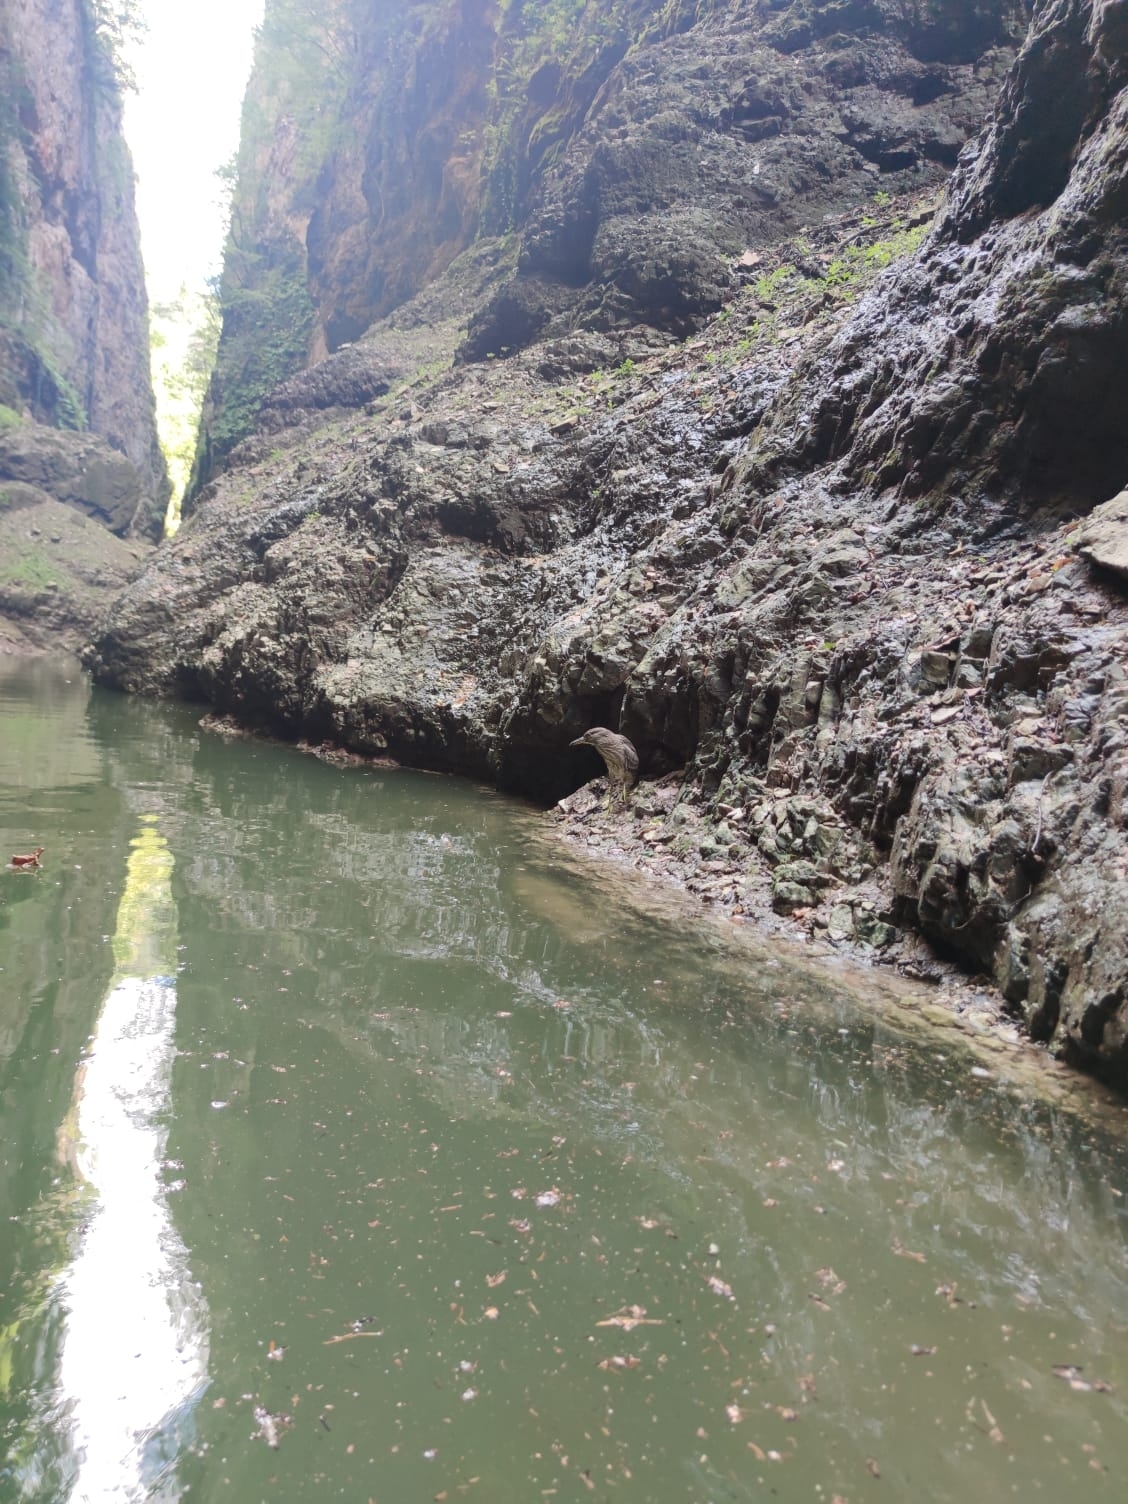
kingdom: Animalia
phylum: Chordata
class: Aves
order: Pelecaniformes
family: Ardeidae
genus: Nycticorax
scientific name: Nycticorax nycticorax
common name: Black-crowned night heron
